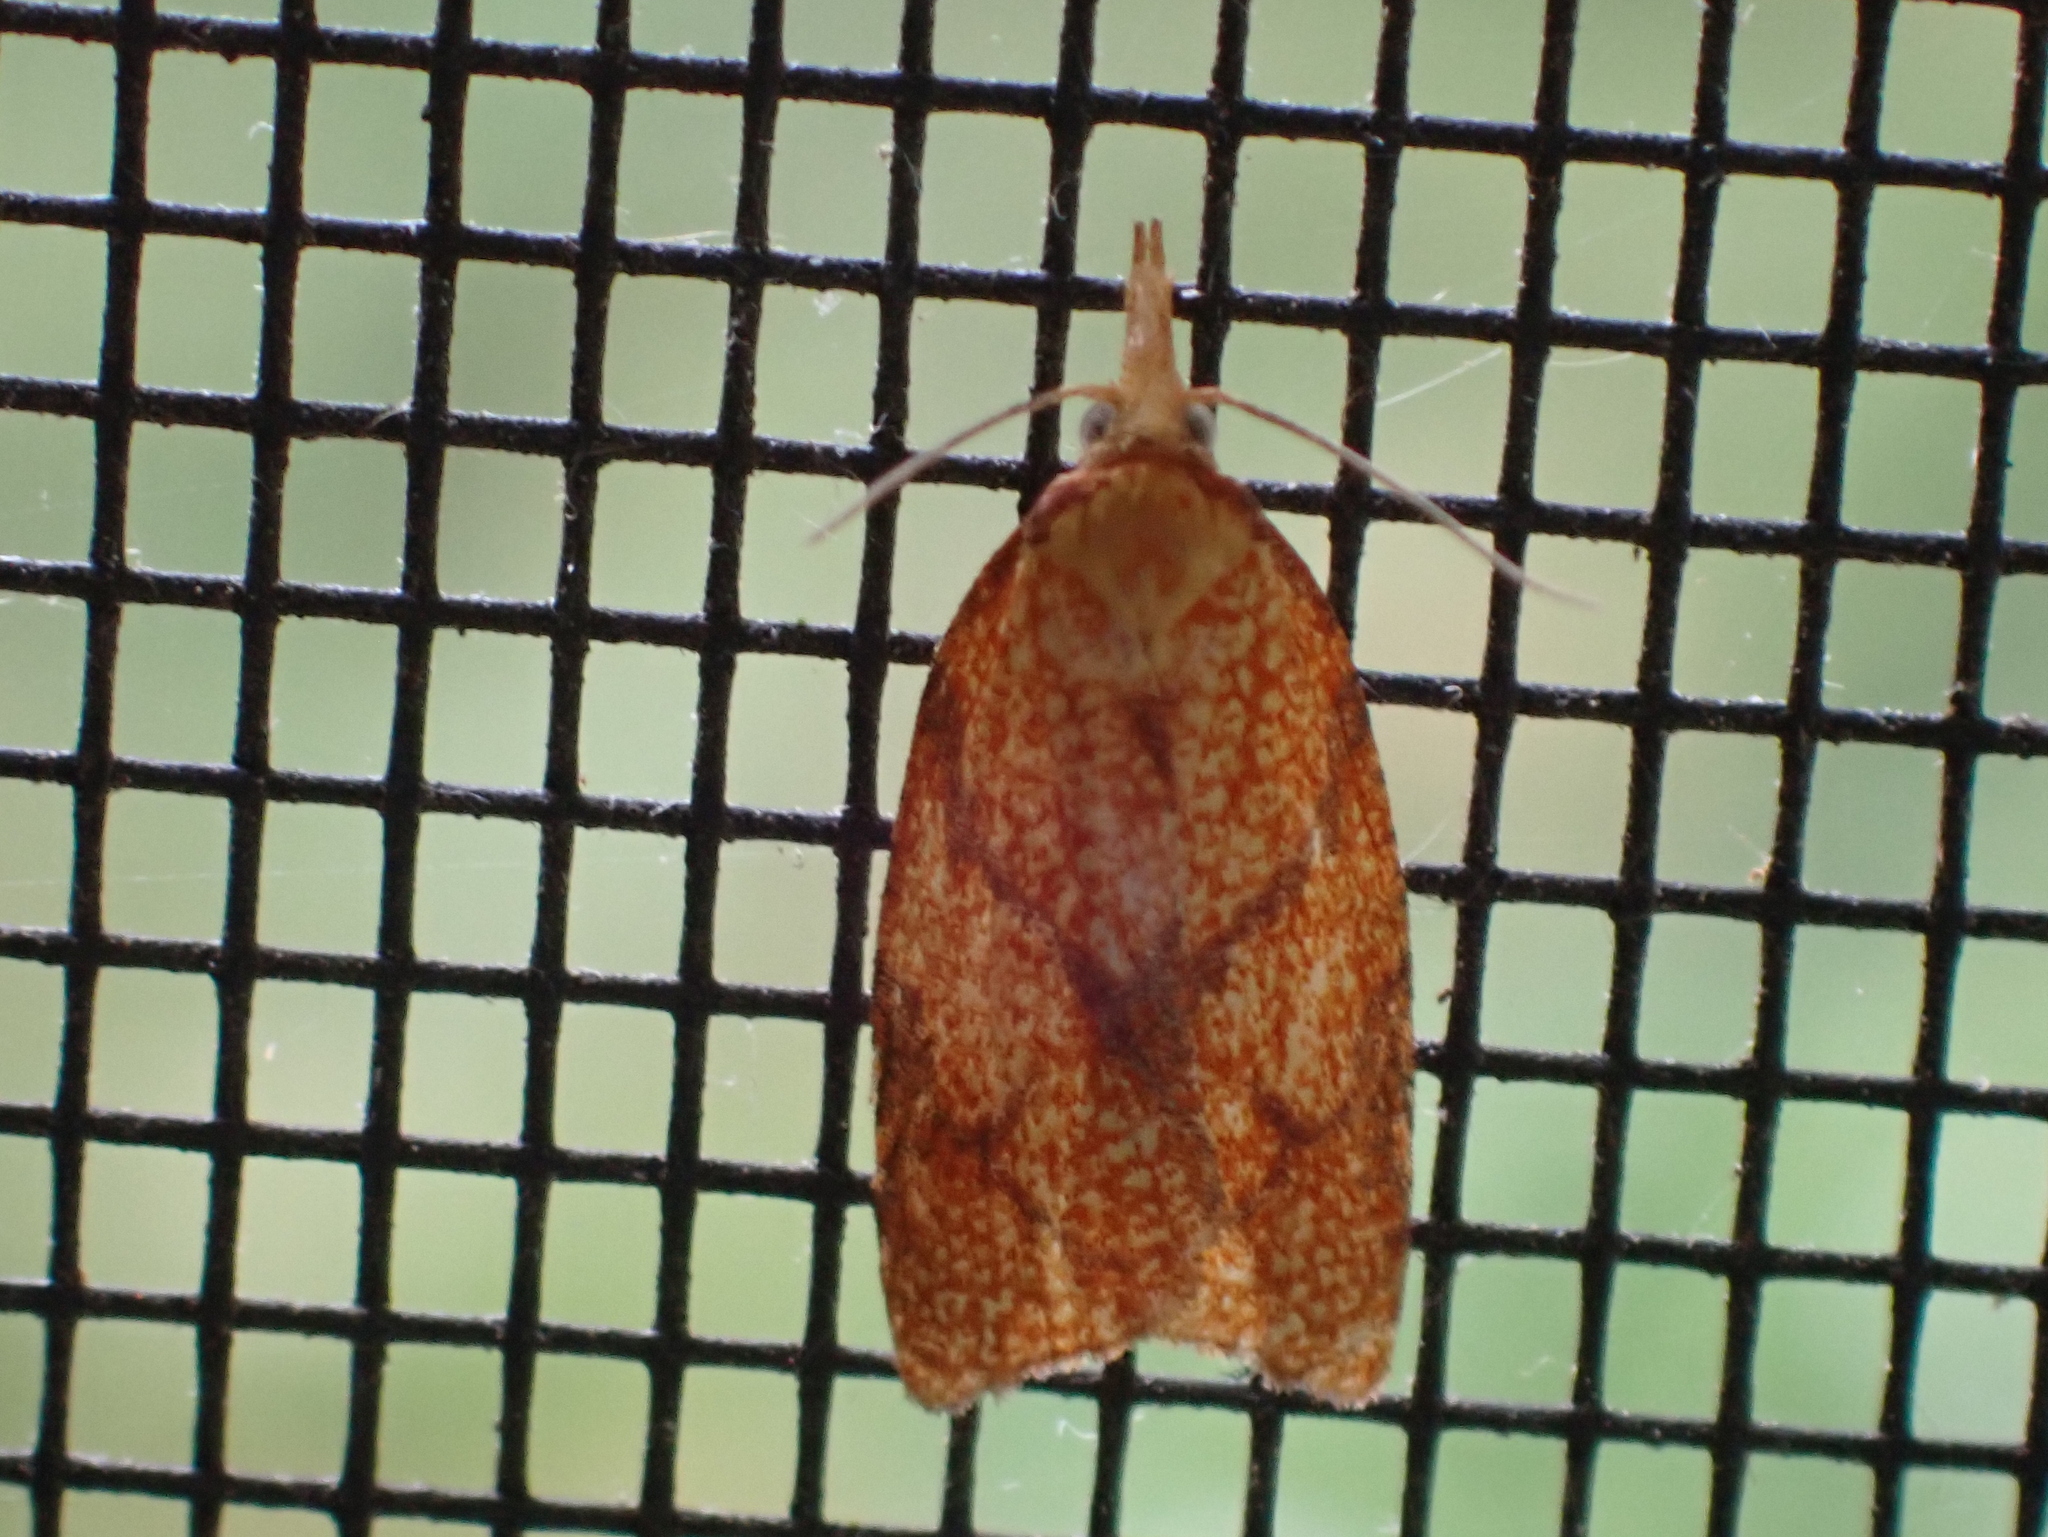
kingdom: Animalia
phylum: Arthropoda
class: Insecta
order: Lepidoptera
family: Tortricidae
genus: Cenopis
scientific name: Cenopis reticulatana
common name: Reticulated fruitworm moth
